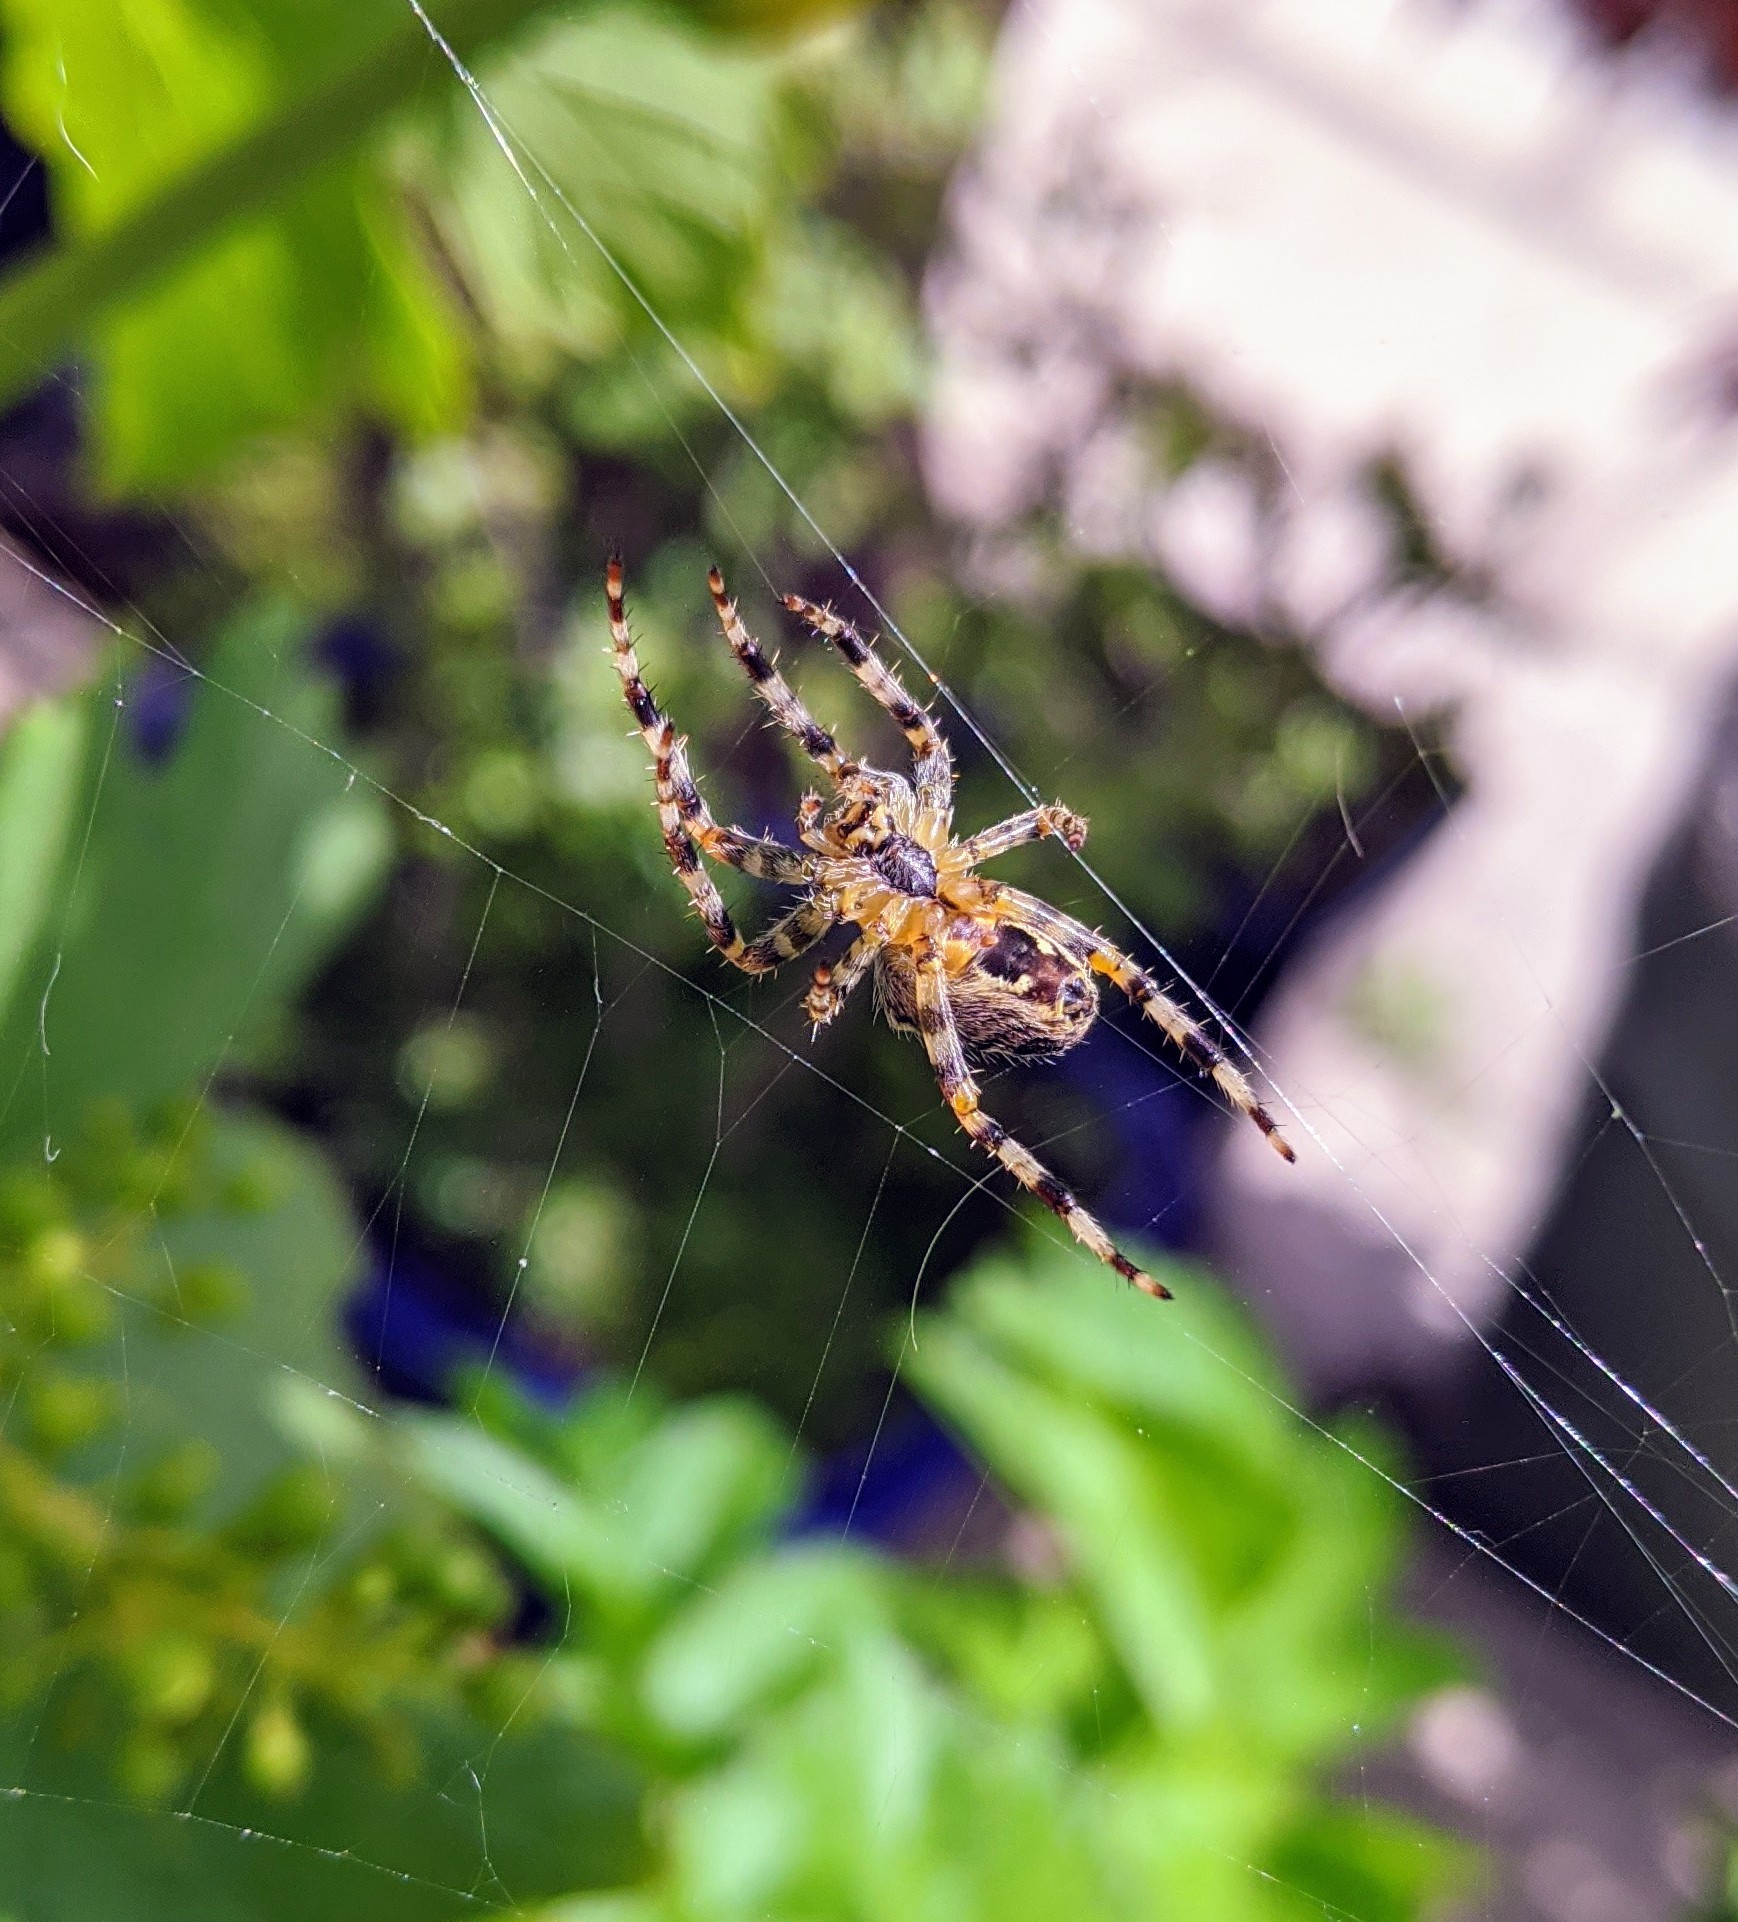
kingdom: Animalia
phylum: Arthropoda
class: Arachnida
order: Araneae
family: Araneidae
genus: Araneus
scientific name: Araneus diadematus
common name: Cross orbweaver
